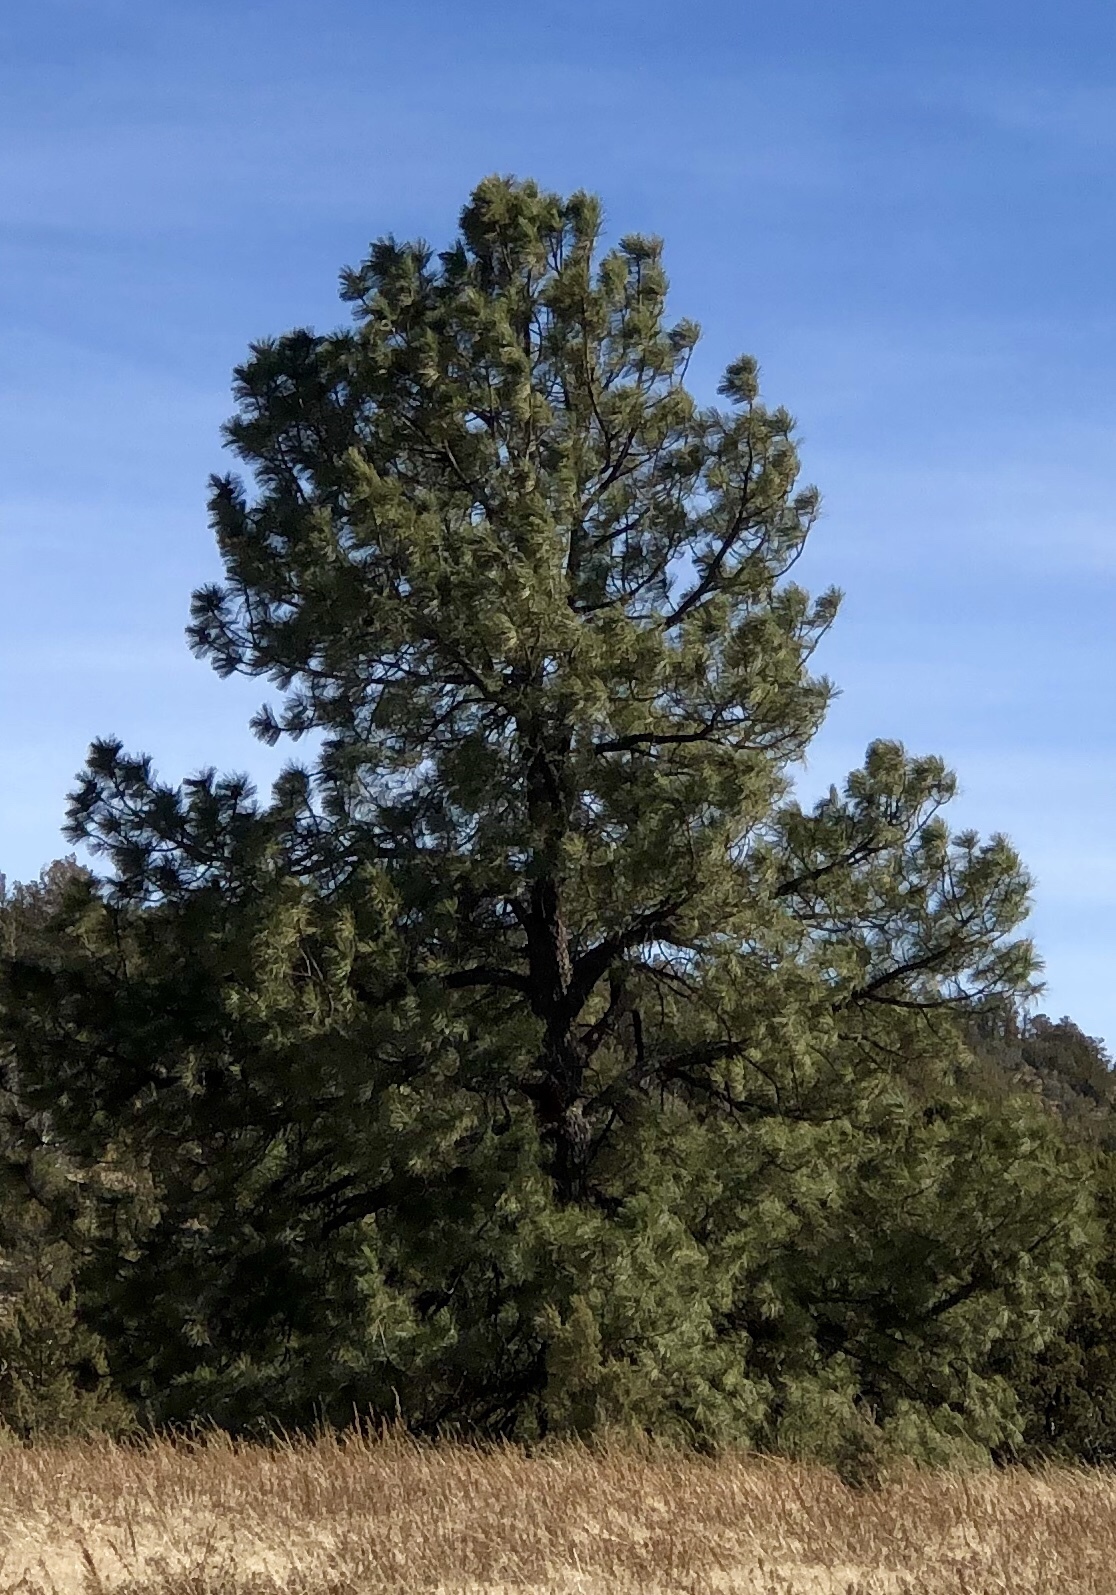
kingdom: Plantae
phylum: Tracheophyta
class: Pinopsida
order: Pinales
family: Pinaceae
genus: Pinus
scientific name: Pinus ponderosa
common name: Western yellow-pine
